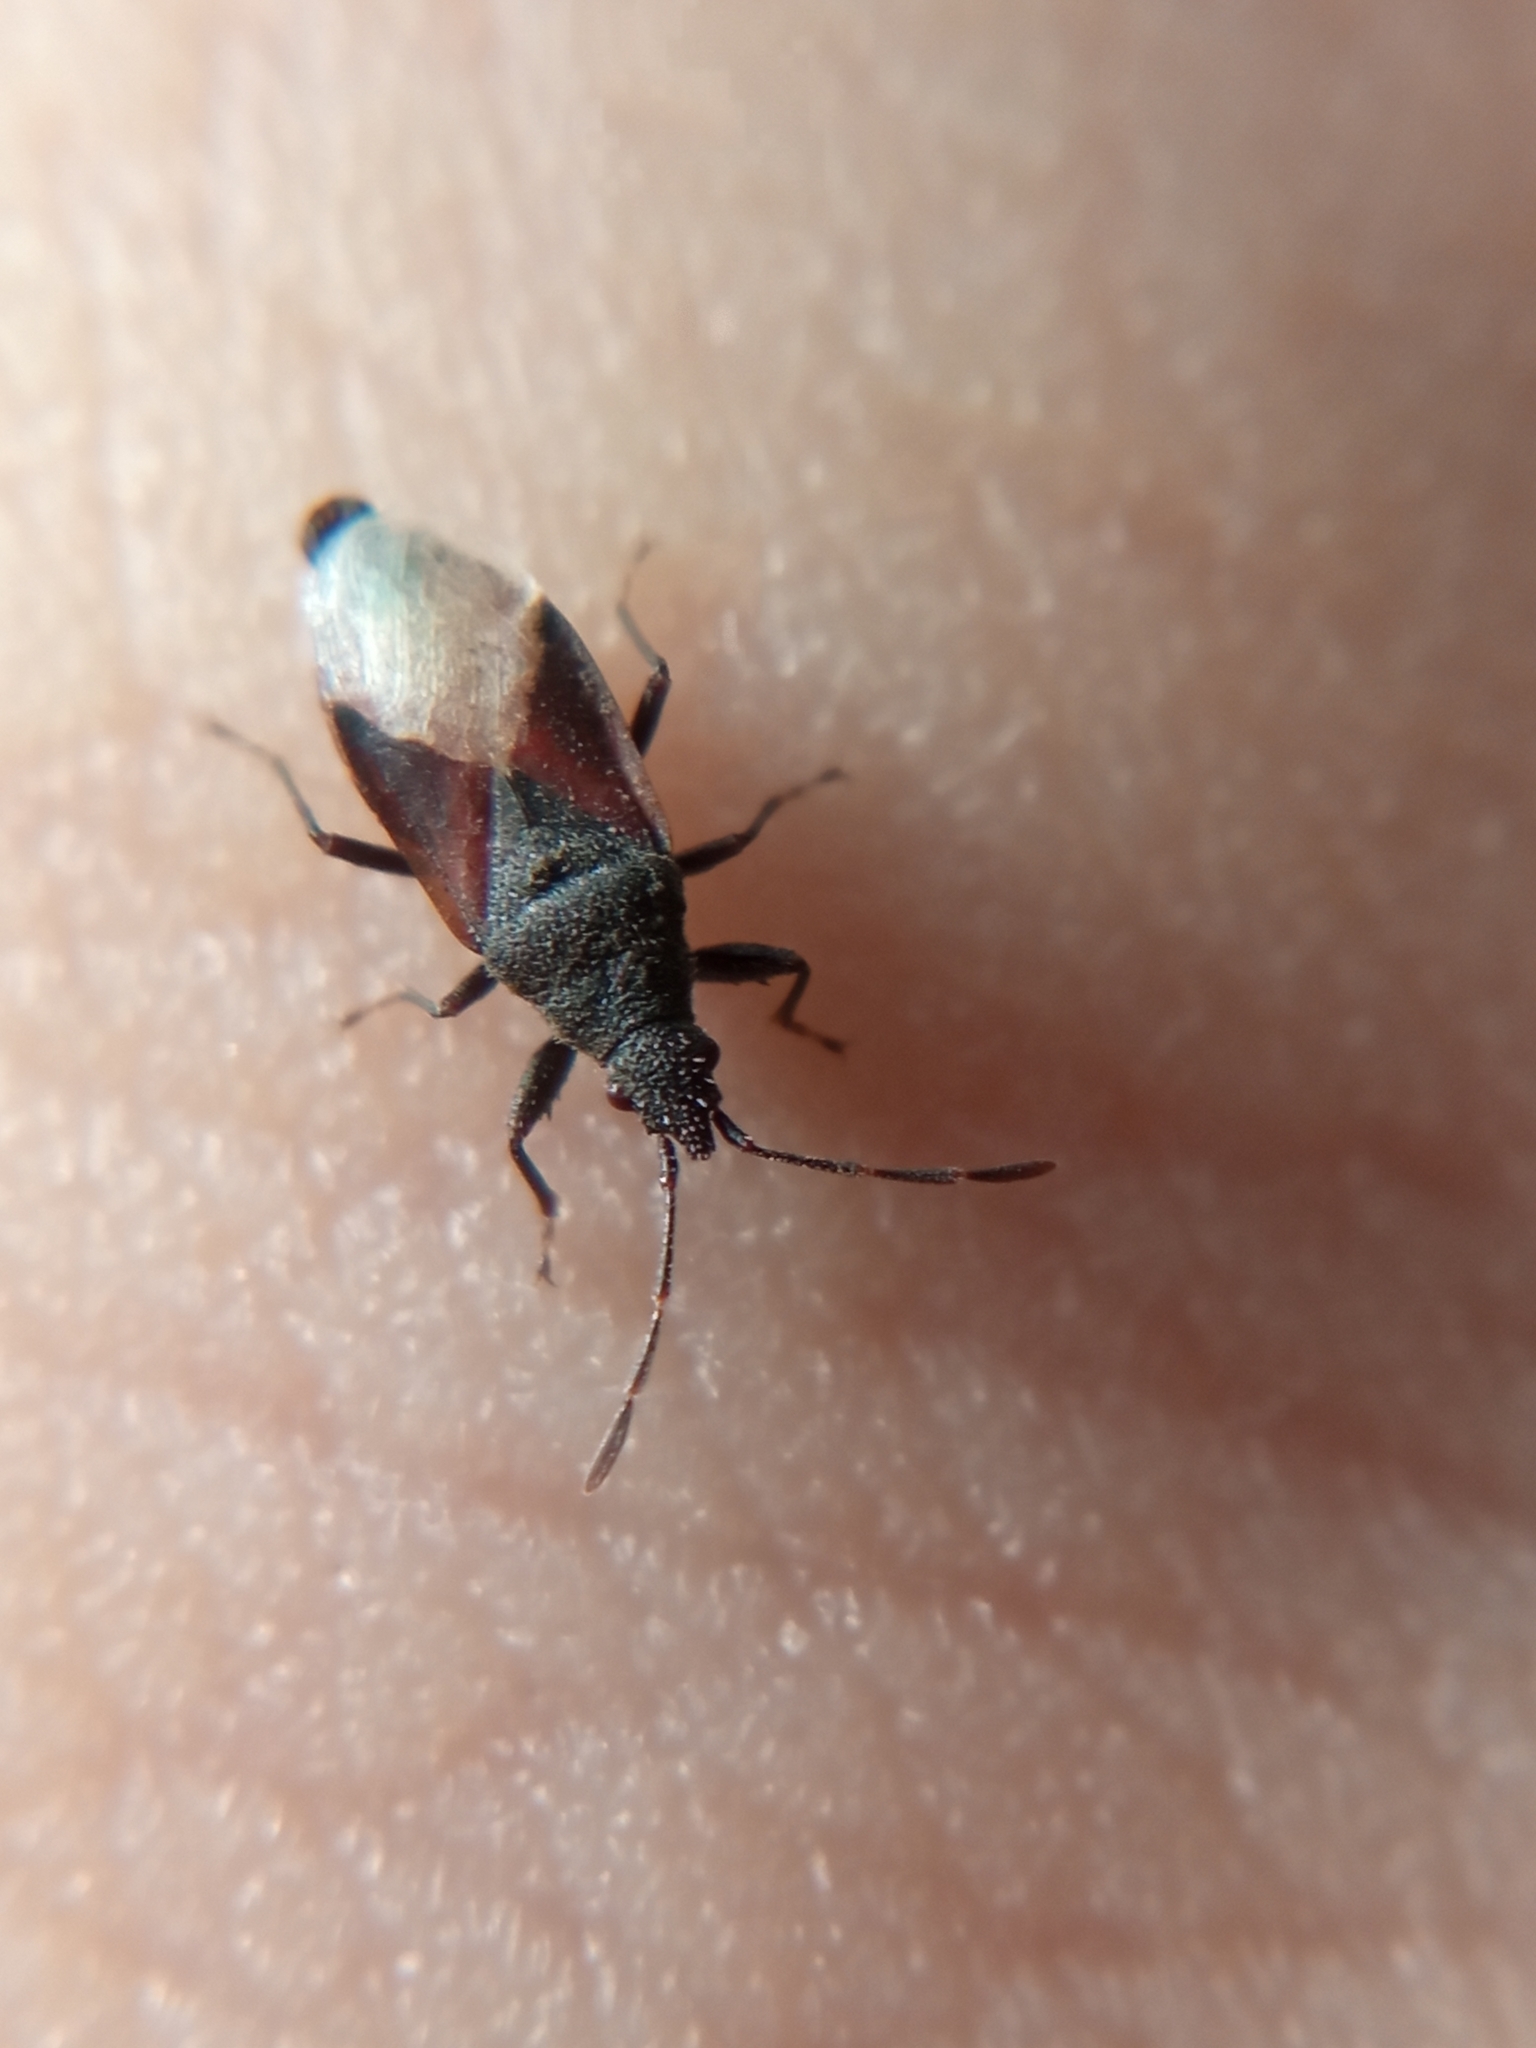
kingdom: Animalia
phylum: Arthropoda
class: Insecta
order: Hemiptera
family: Oxycarenidae
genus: Oxycarenus
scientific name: Oxycarenus lavaterae
